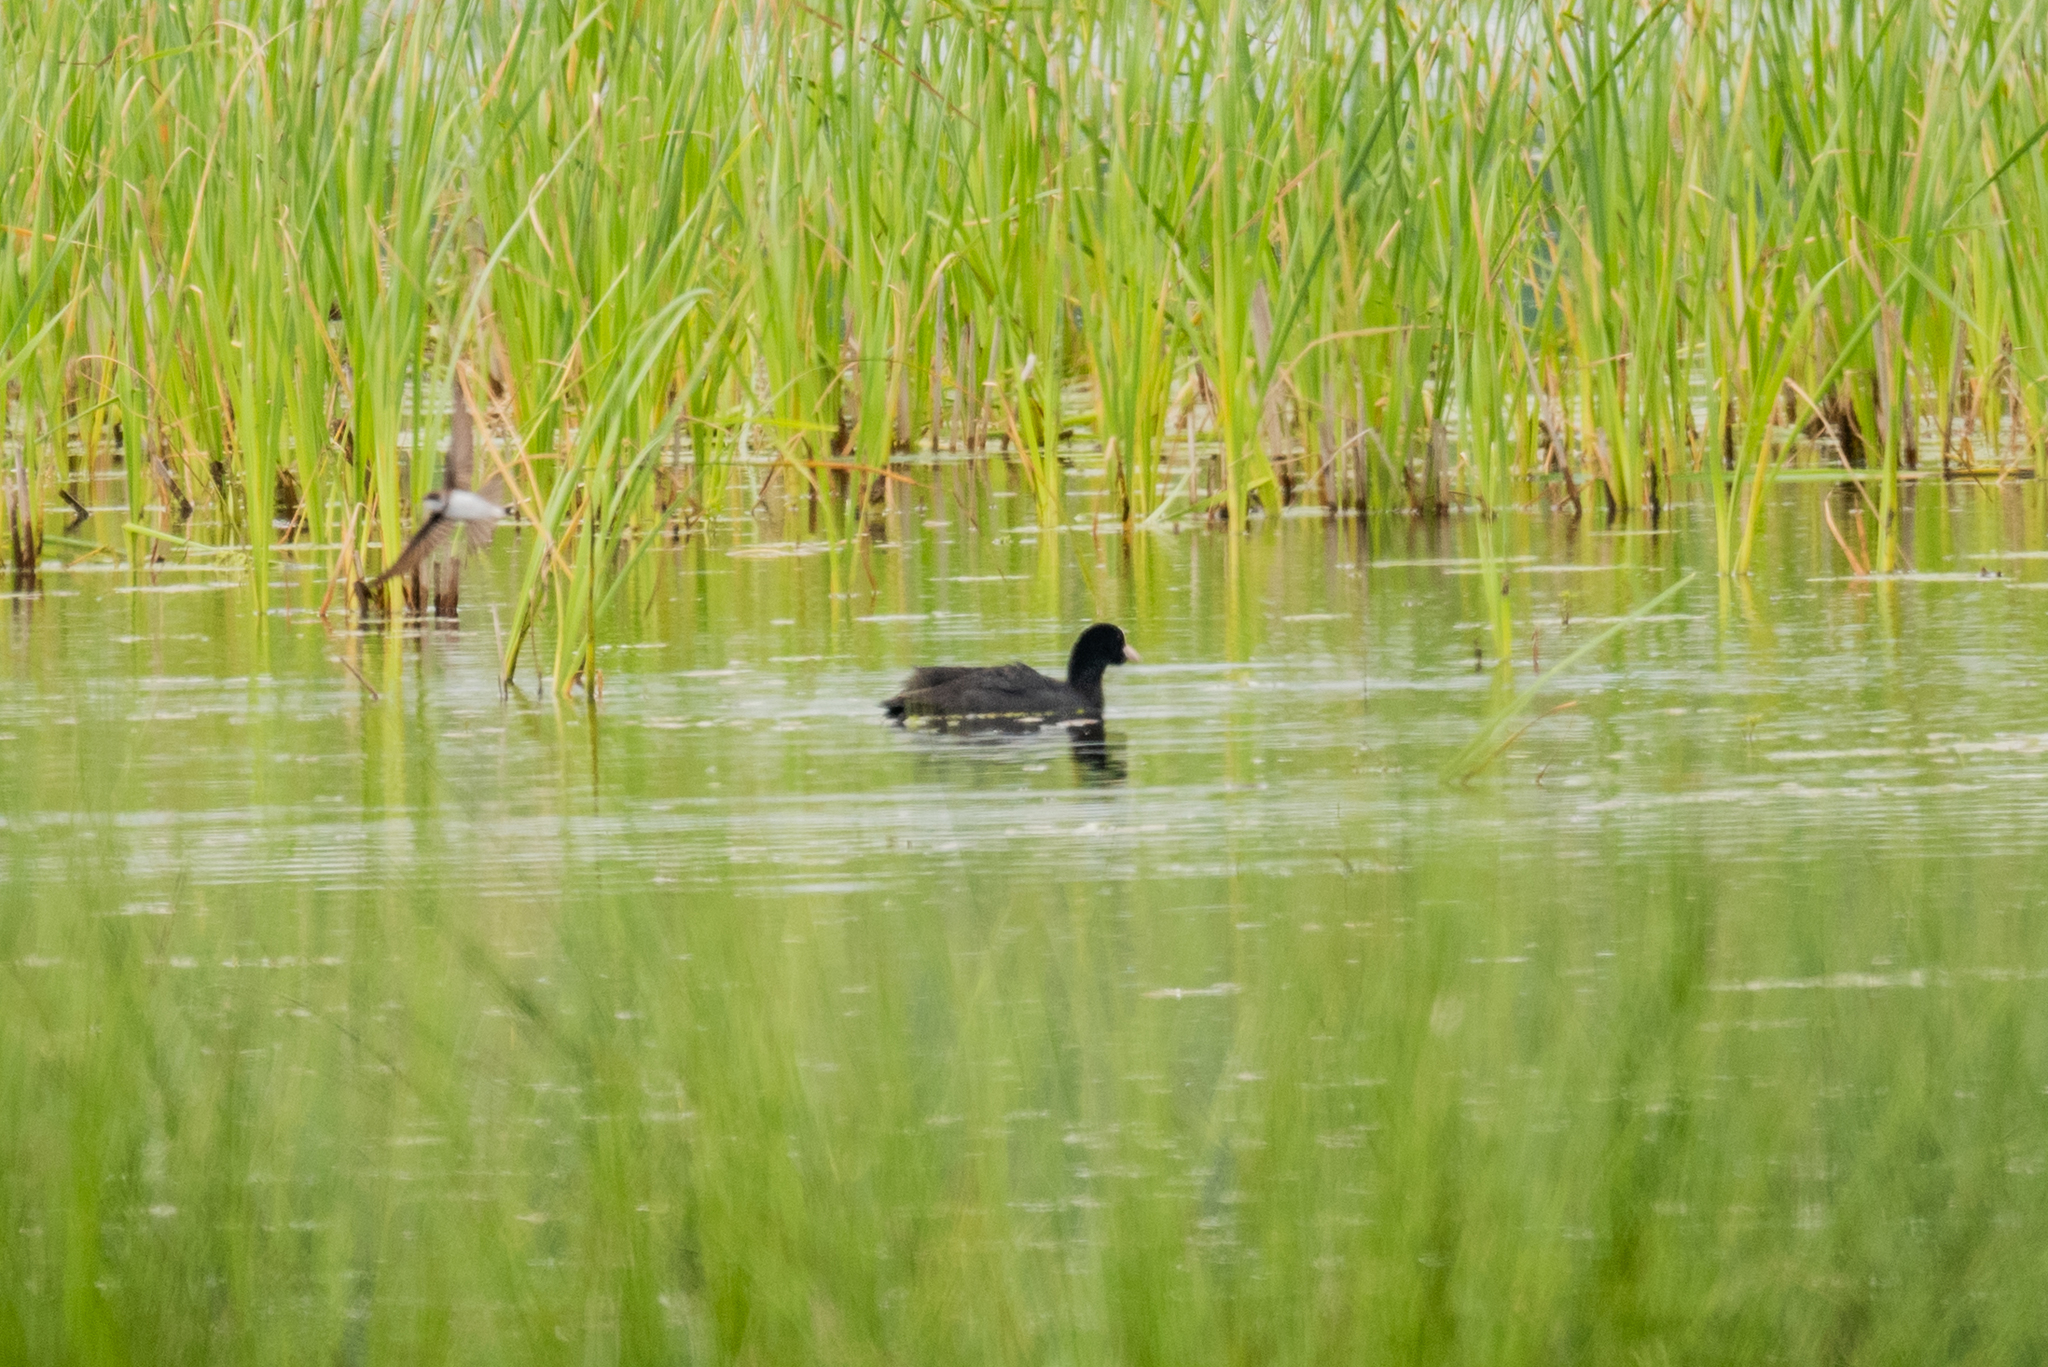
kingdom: Animalia
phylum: Chordata
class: Aves
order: Gruiformes
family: Rallidae
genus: Fulica
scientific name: Fulica atra
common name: Eurasian coot
